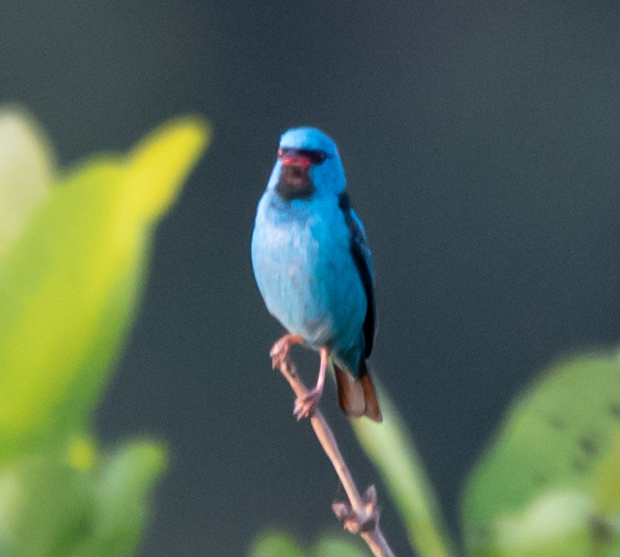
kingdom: Animalia
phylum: Chordata
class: Aves
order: Passeriformes
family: Thraupidae
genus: Dacnis
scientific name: Dacnis cayana
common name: Blue dacnis
